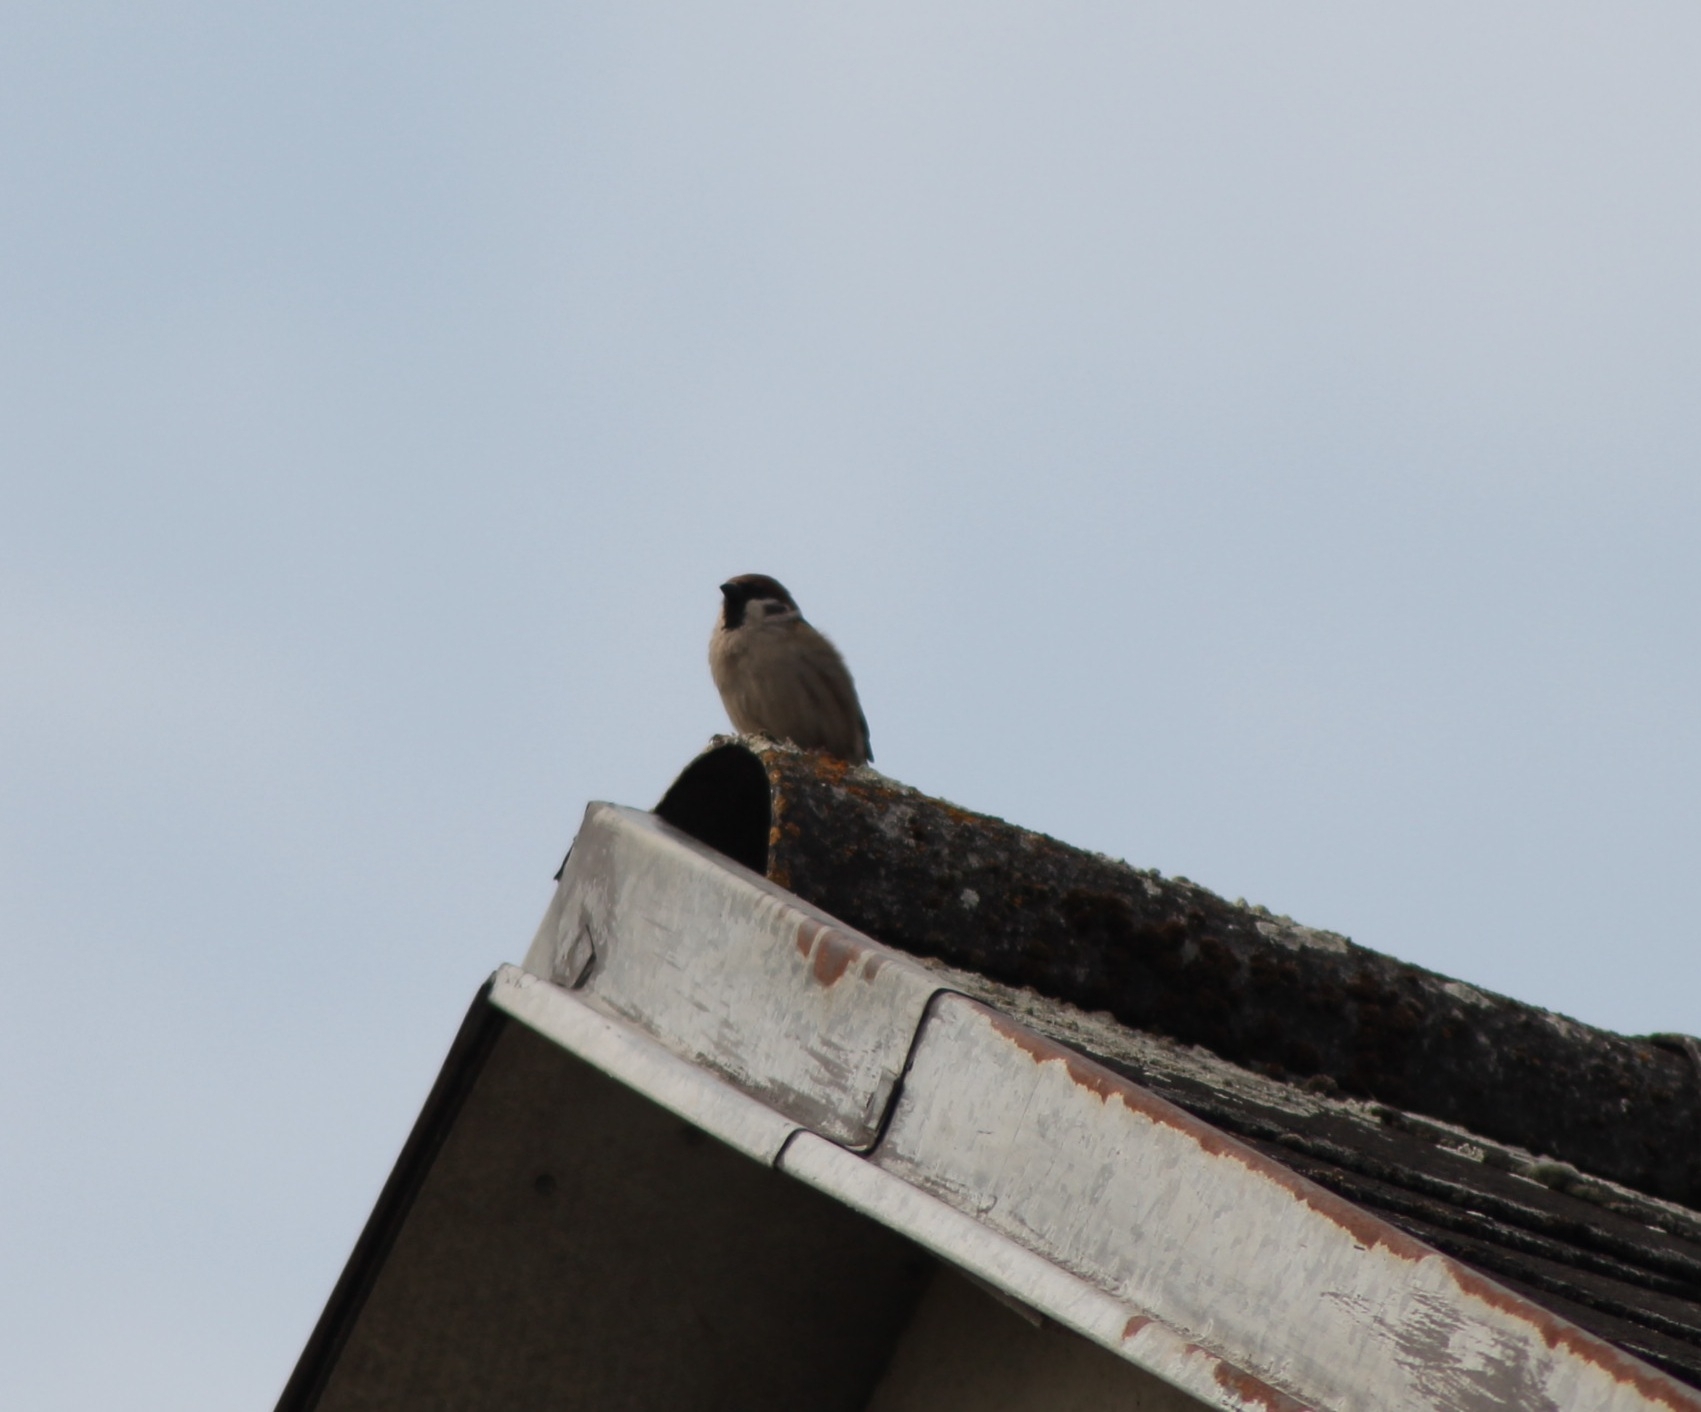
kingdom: Animalia
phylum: Chordata
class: Aves
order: Passeriformes
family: Passeridae
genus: Passer
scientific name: Passer montanus
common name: Eurasian tree sparrow
